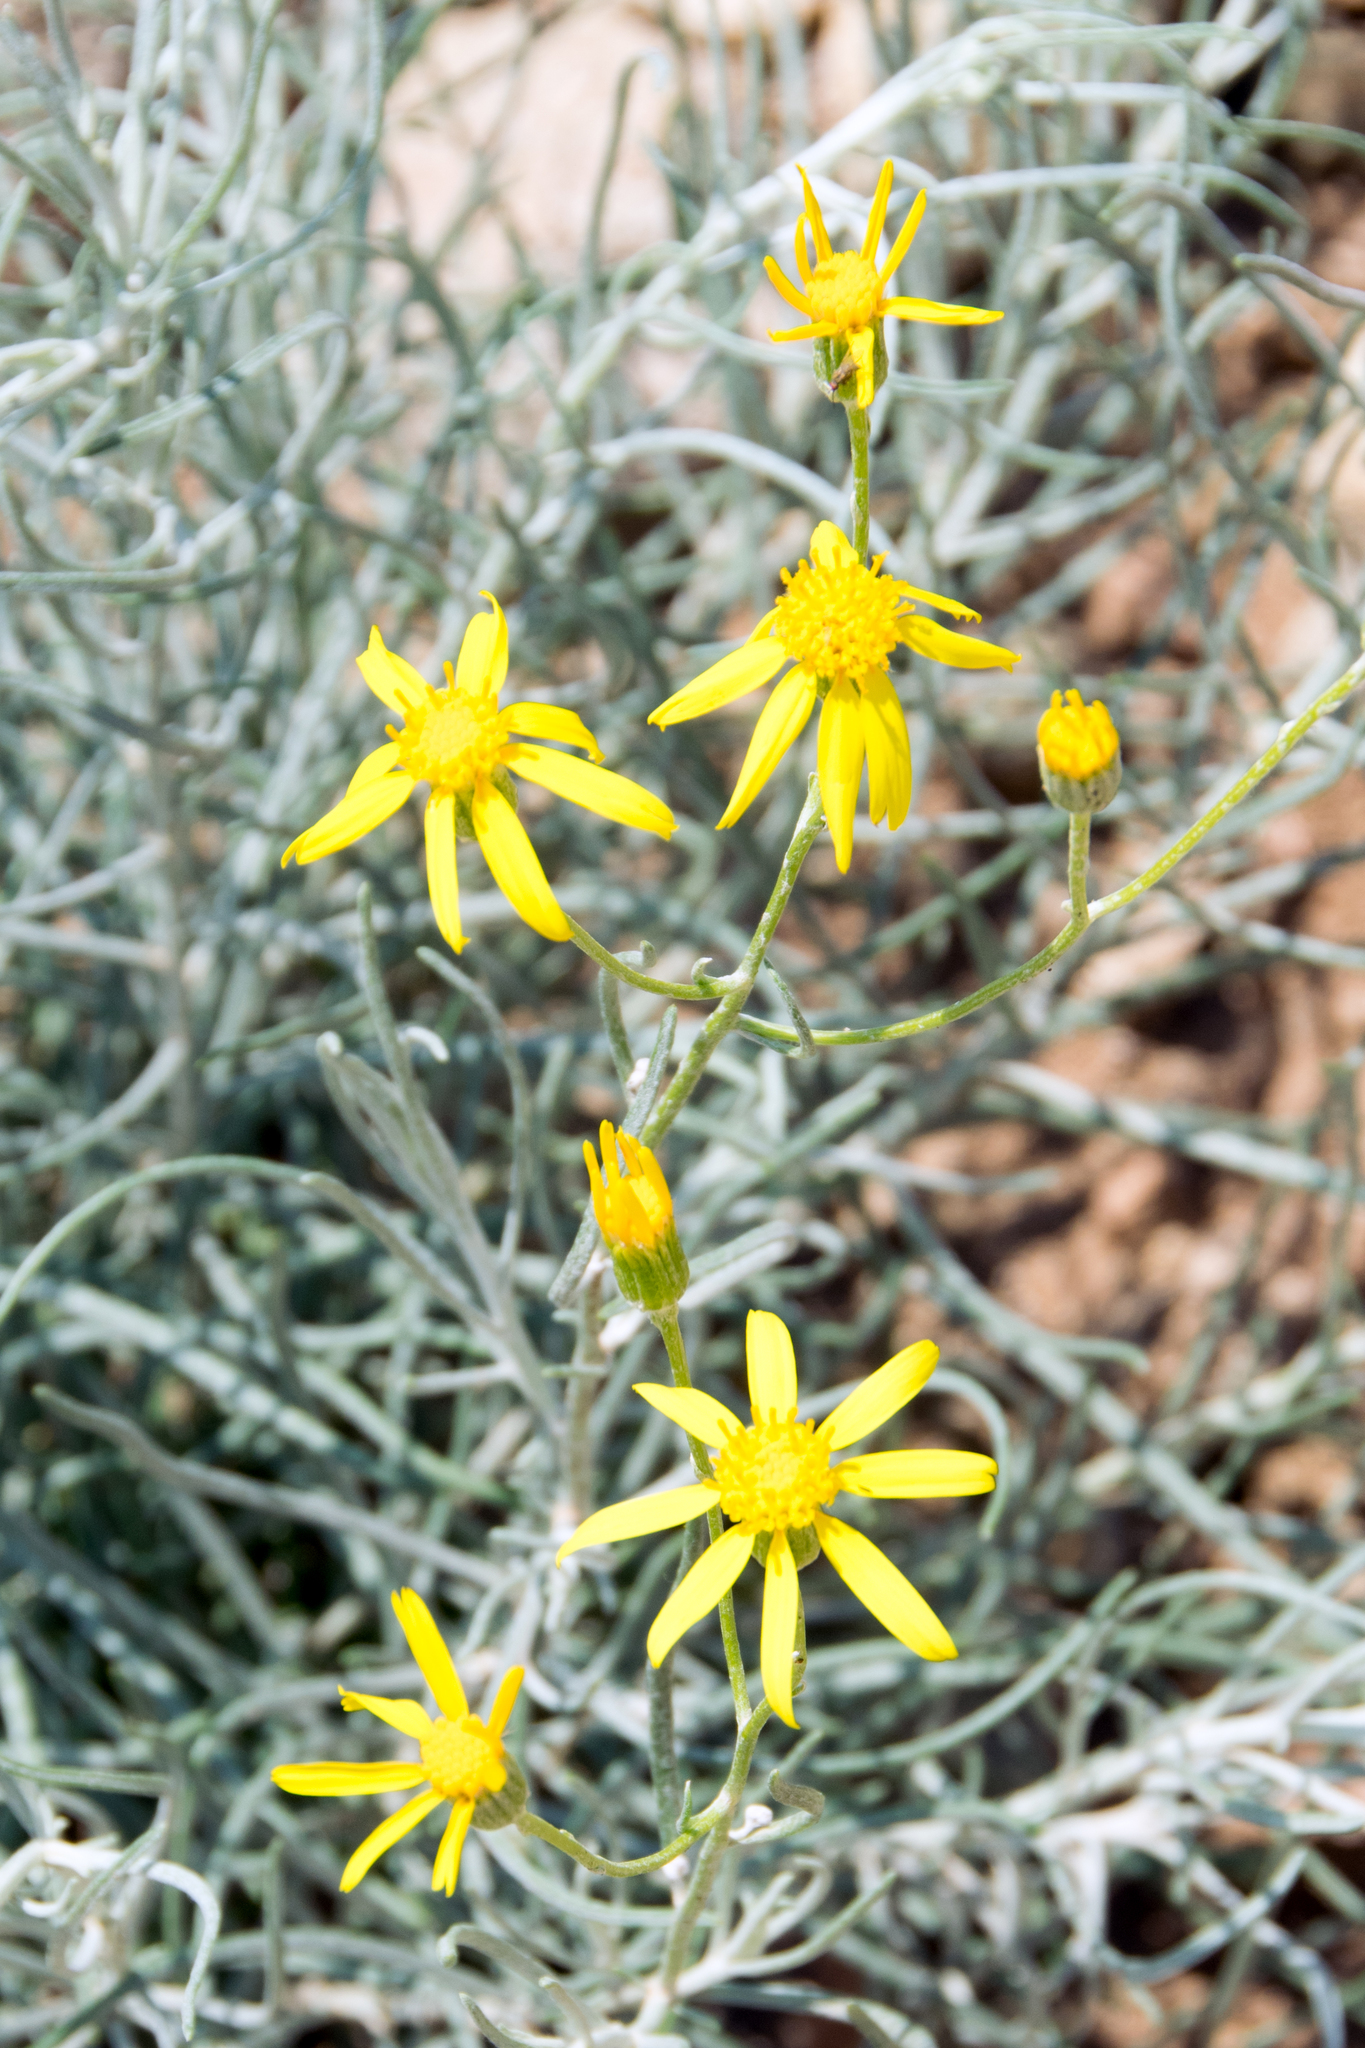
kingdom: Plantae
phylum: Tracheophyta
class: Magnoliopsida
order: Asterales
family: Asteraceae
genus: Senecio
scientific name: Senecio flaccidus
